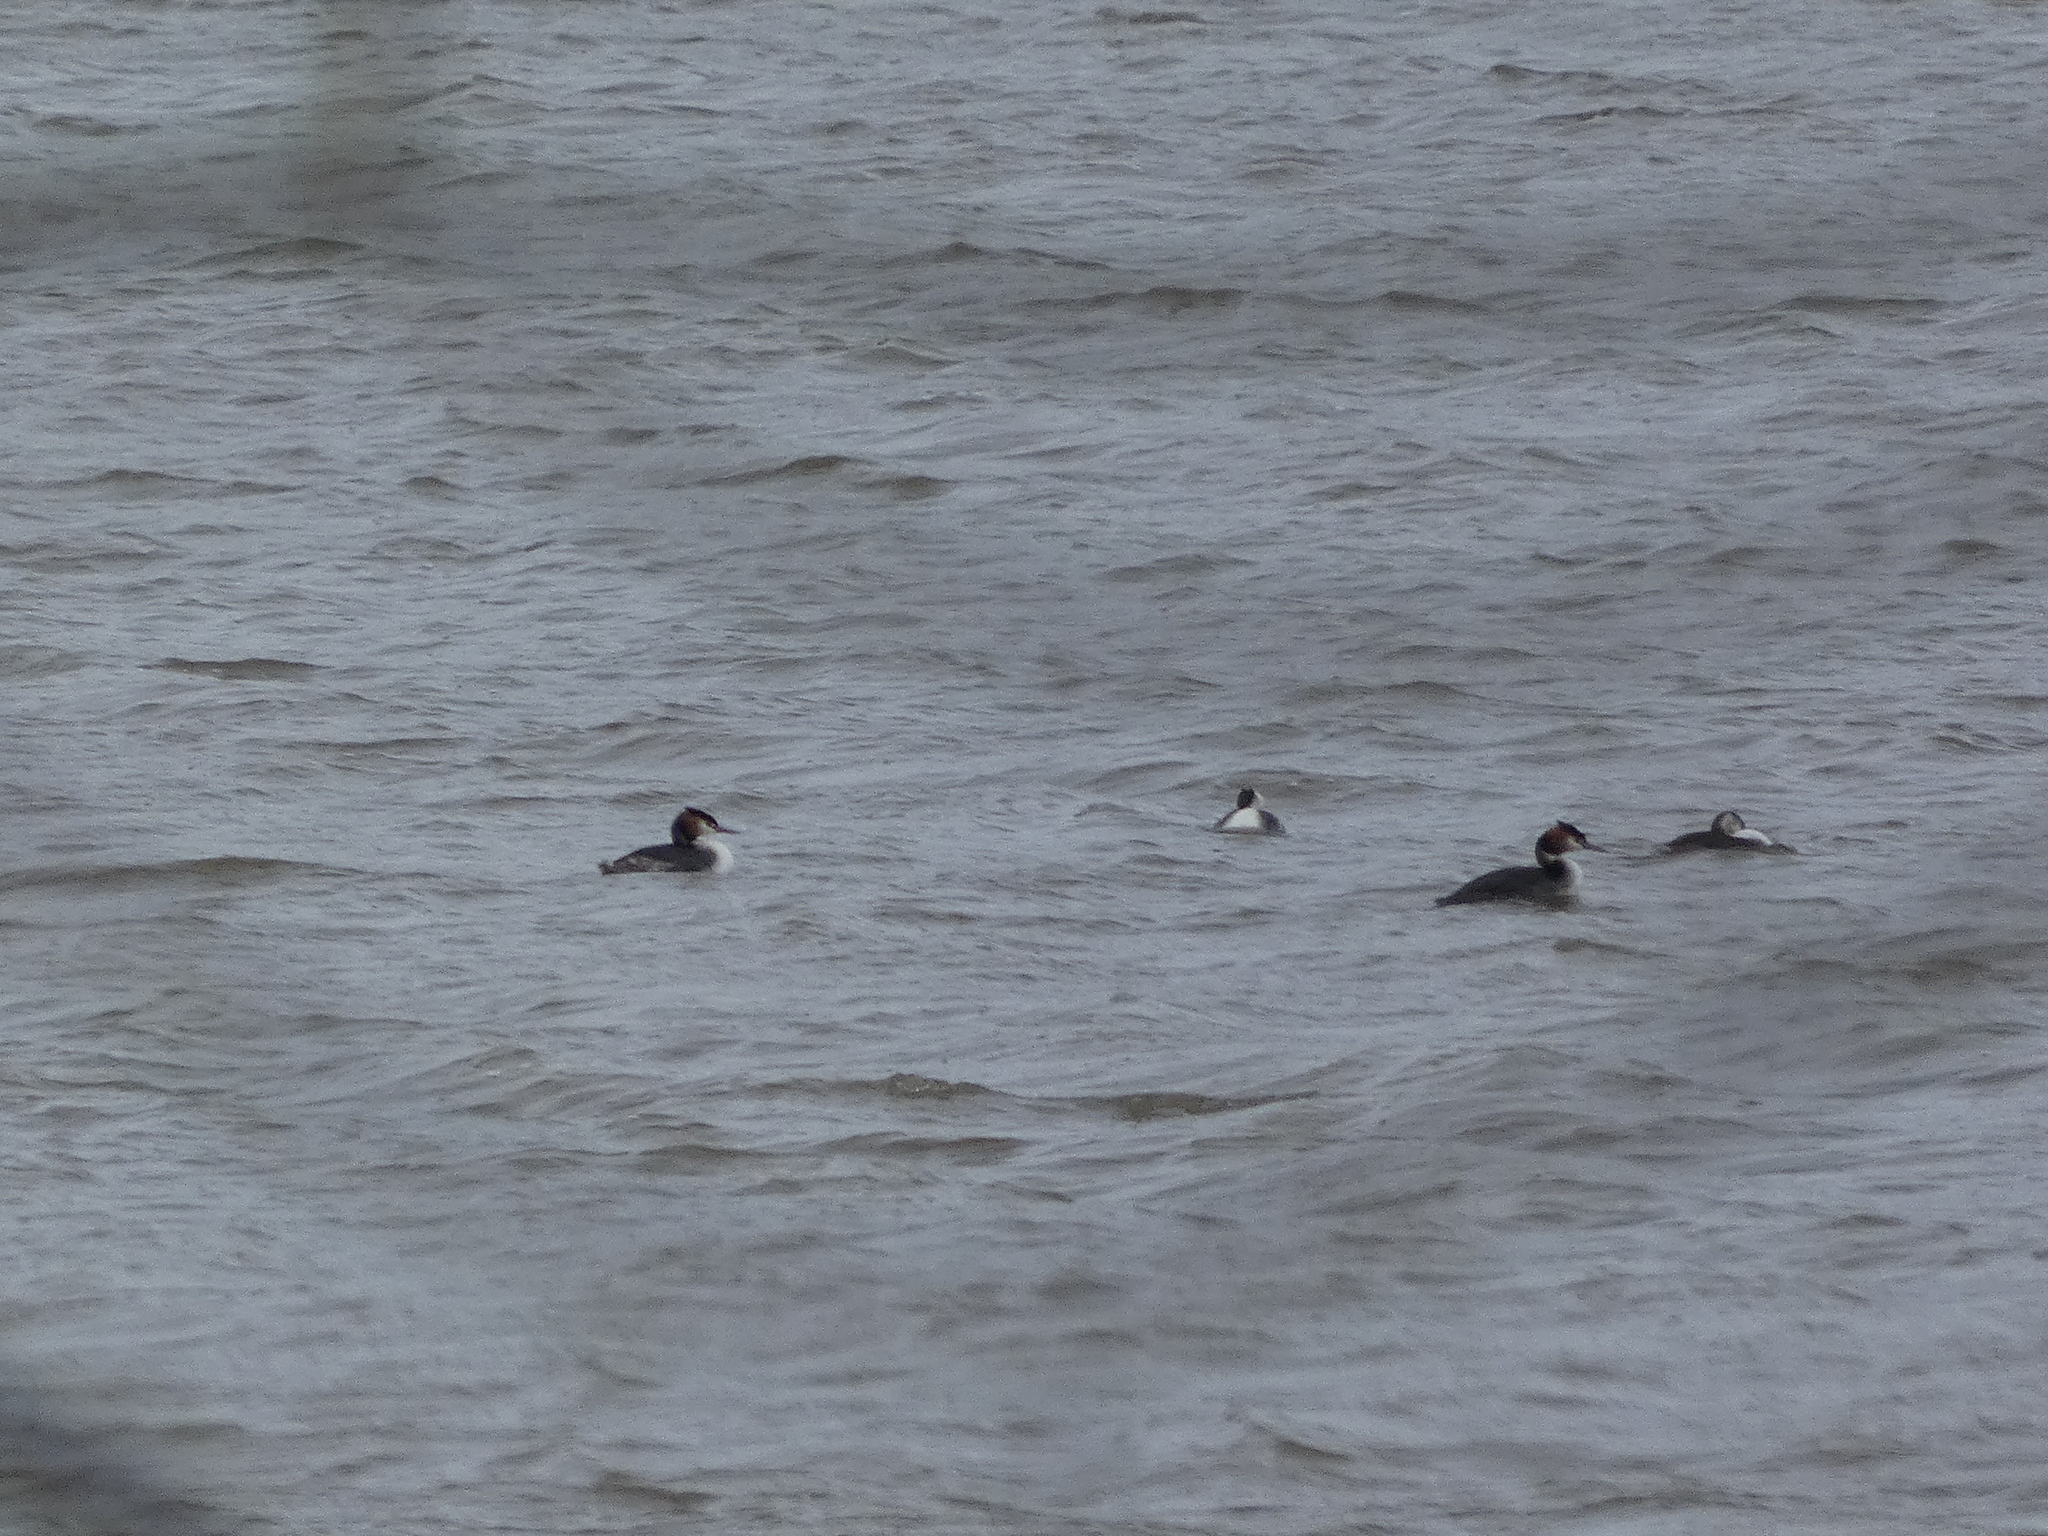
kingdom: Animalia
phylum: Chordata
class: Aves
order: Podicipediformes
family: Podicipedidae
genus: Podiceps
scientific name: Podiceps cristatus
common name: Great crested grebe
